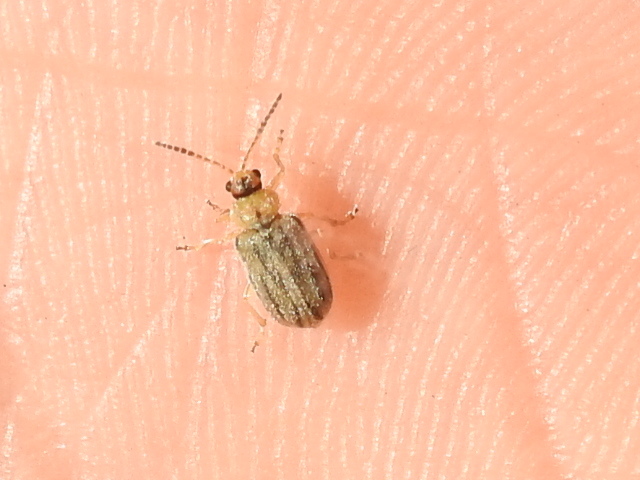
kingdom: Animalia
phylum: Arthropoda
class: Insecta
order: Coleoptera
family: Chrysomelidae
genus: Ophraella
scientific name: Ophraella communa
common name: Ragweed leaf beetle
